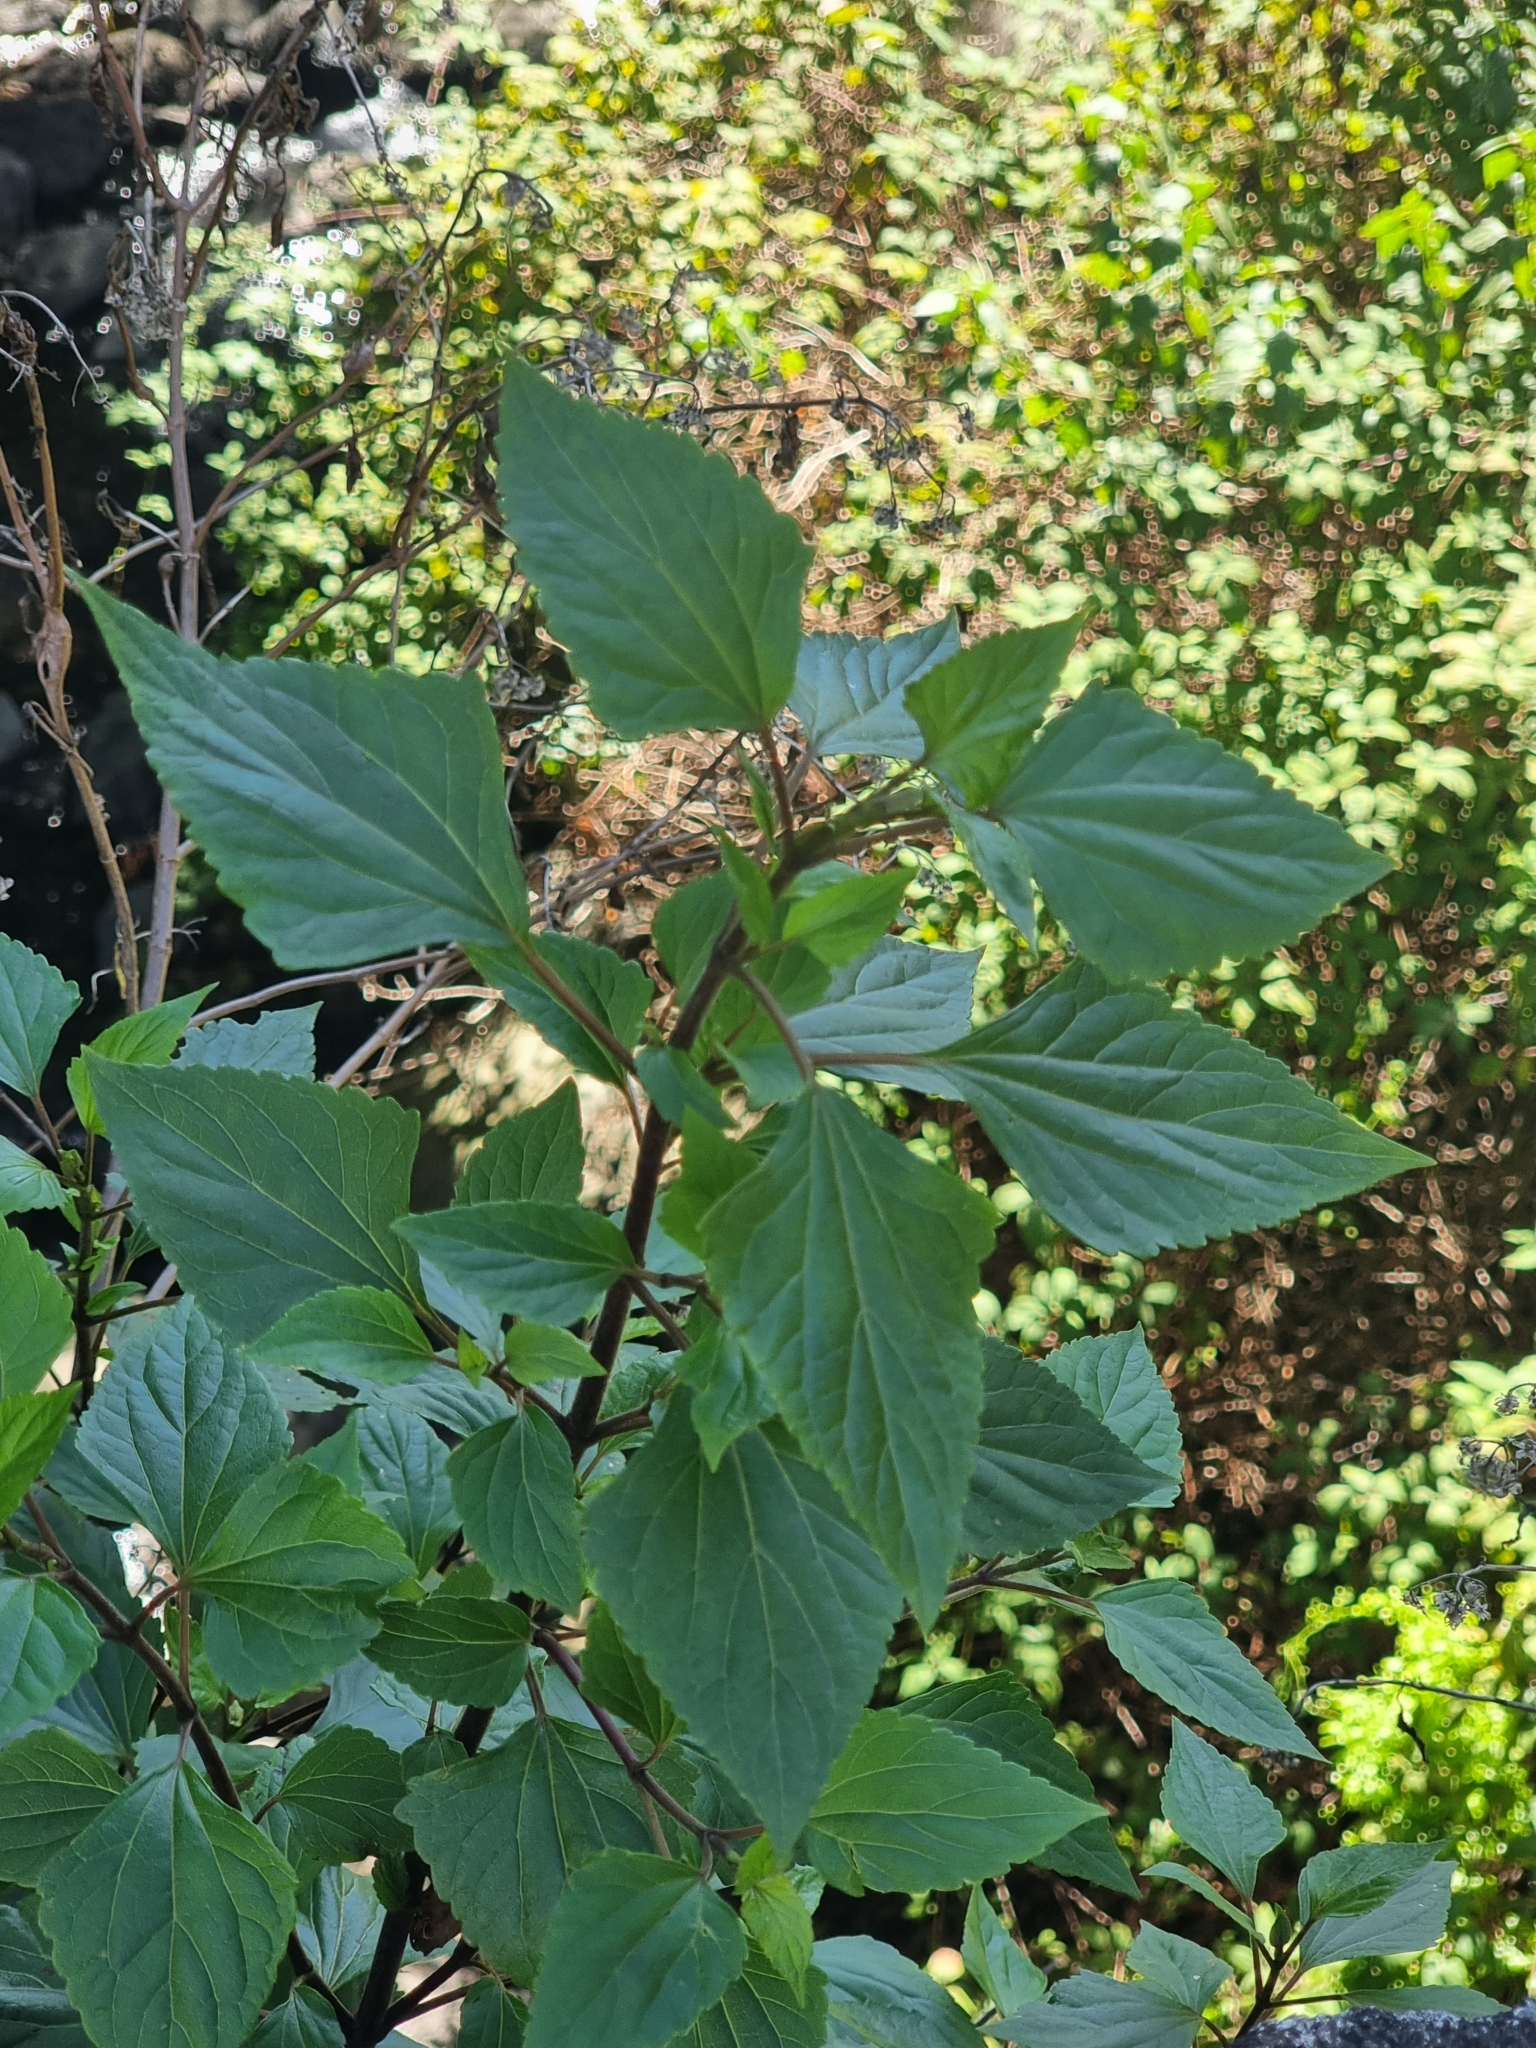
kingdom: Plantae
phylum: Tracheophyta
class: Magnoliopsida
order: Asterales
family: Asteraceae
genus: Ageratina
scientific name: Ageratina adenophora
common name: Sticky snakeroot
